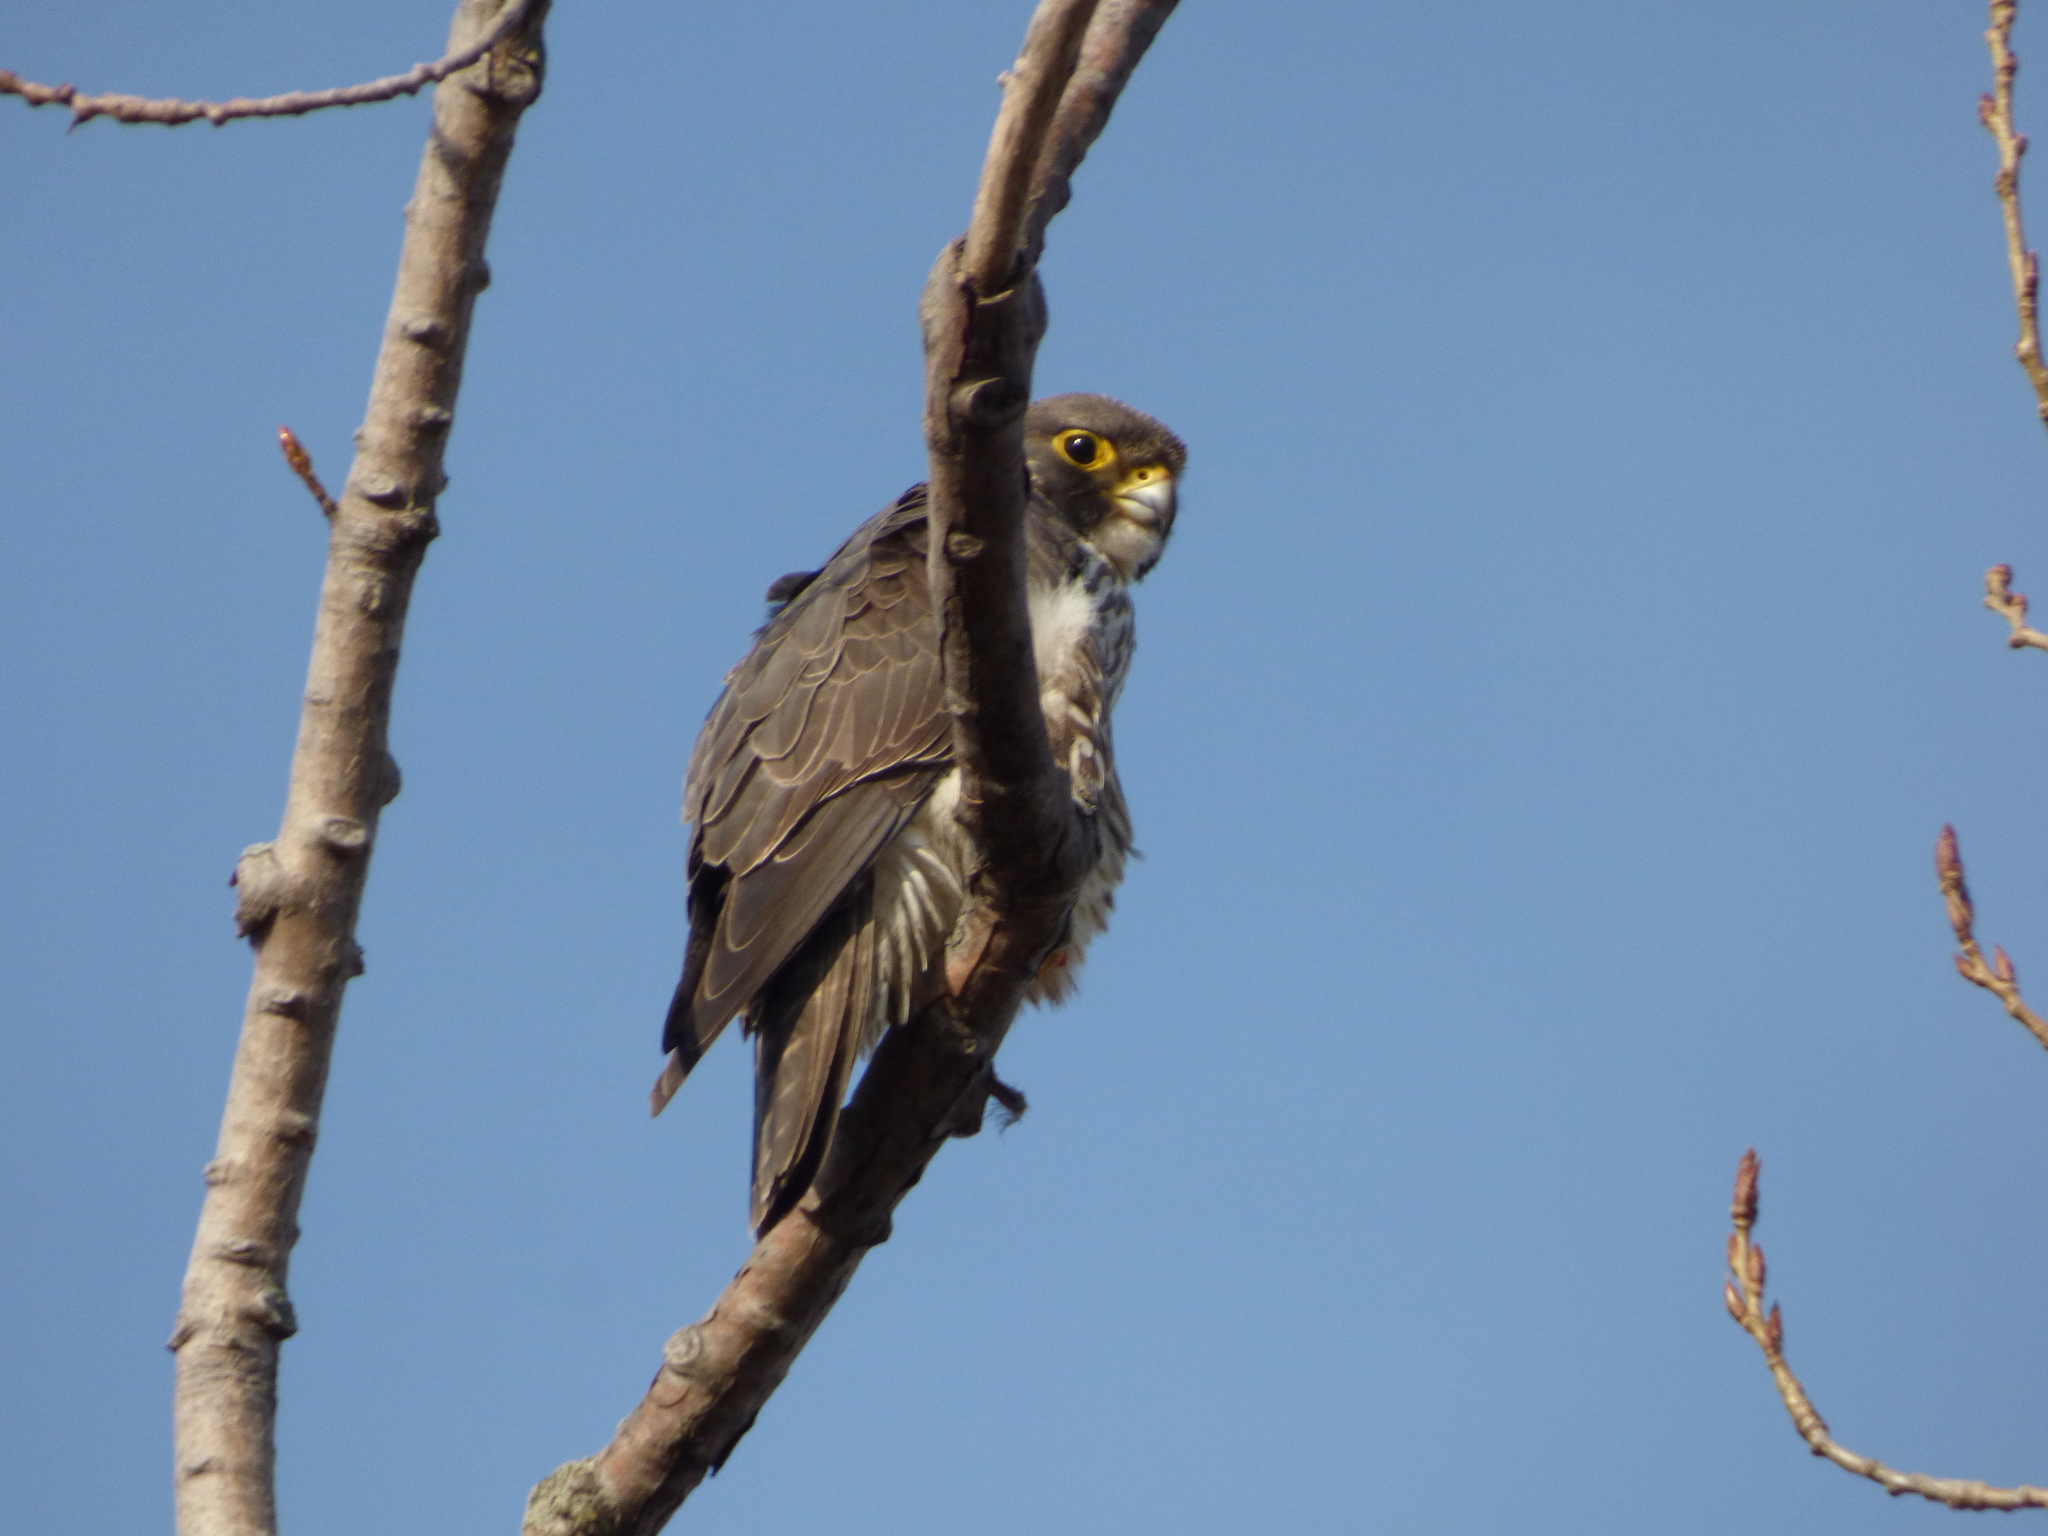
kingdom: Animalia
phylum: Chordata
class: Aves
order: Falconiformes
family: Falconidae
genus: Falco
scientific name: Falco peregrinus
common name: Peregrine falcon
